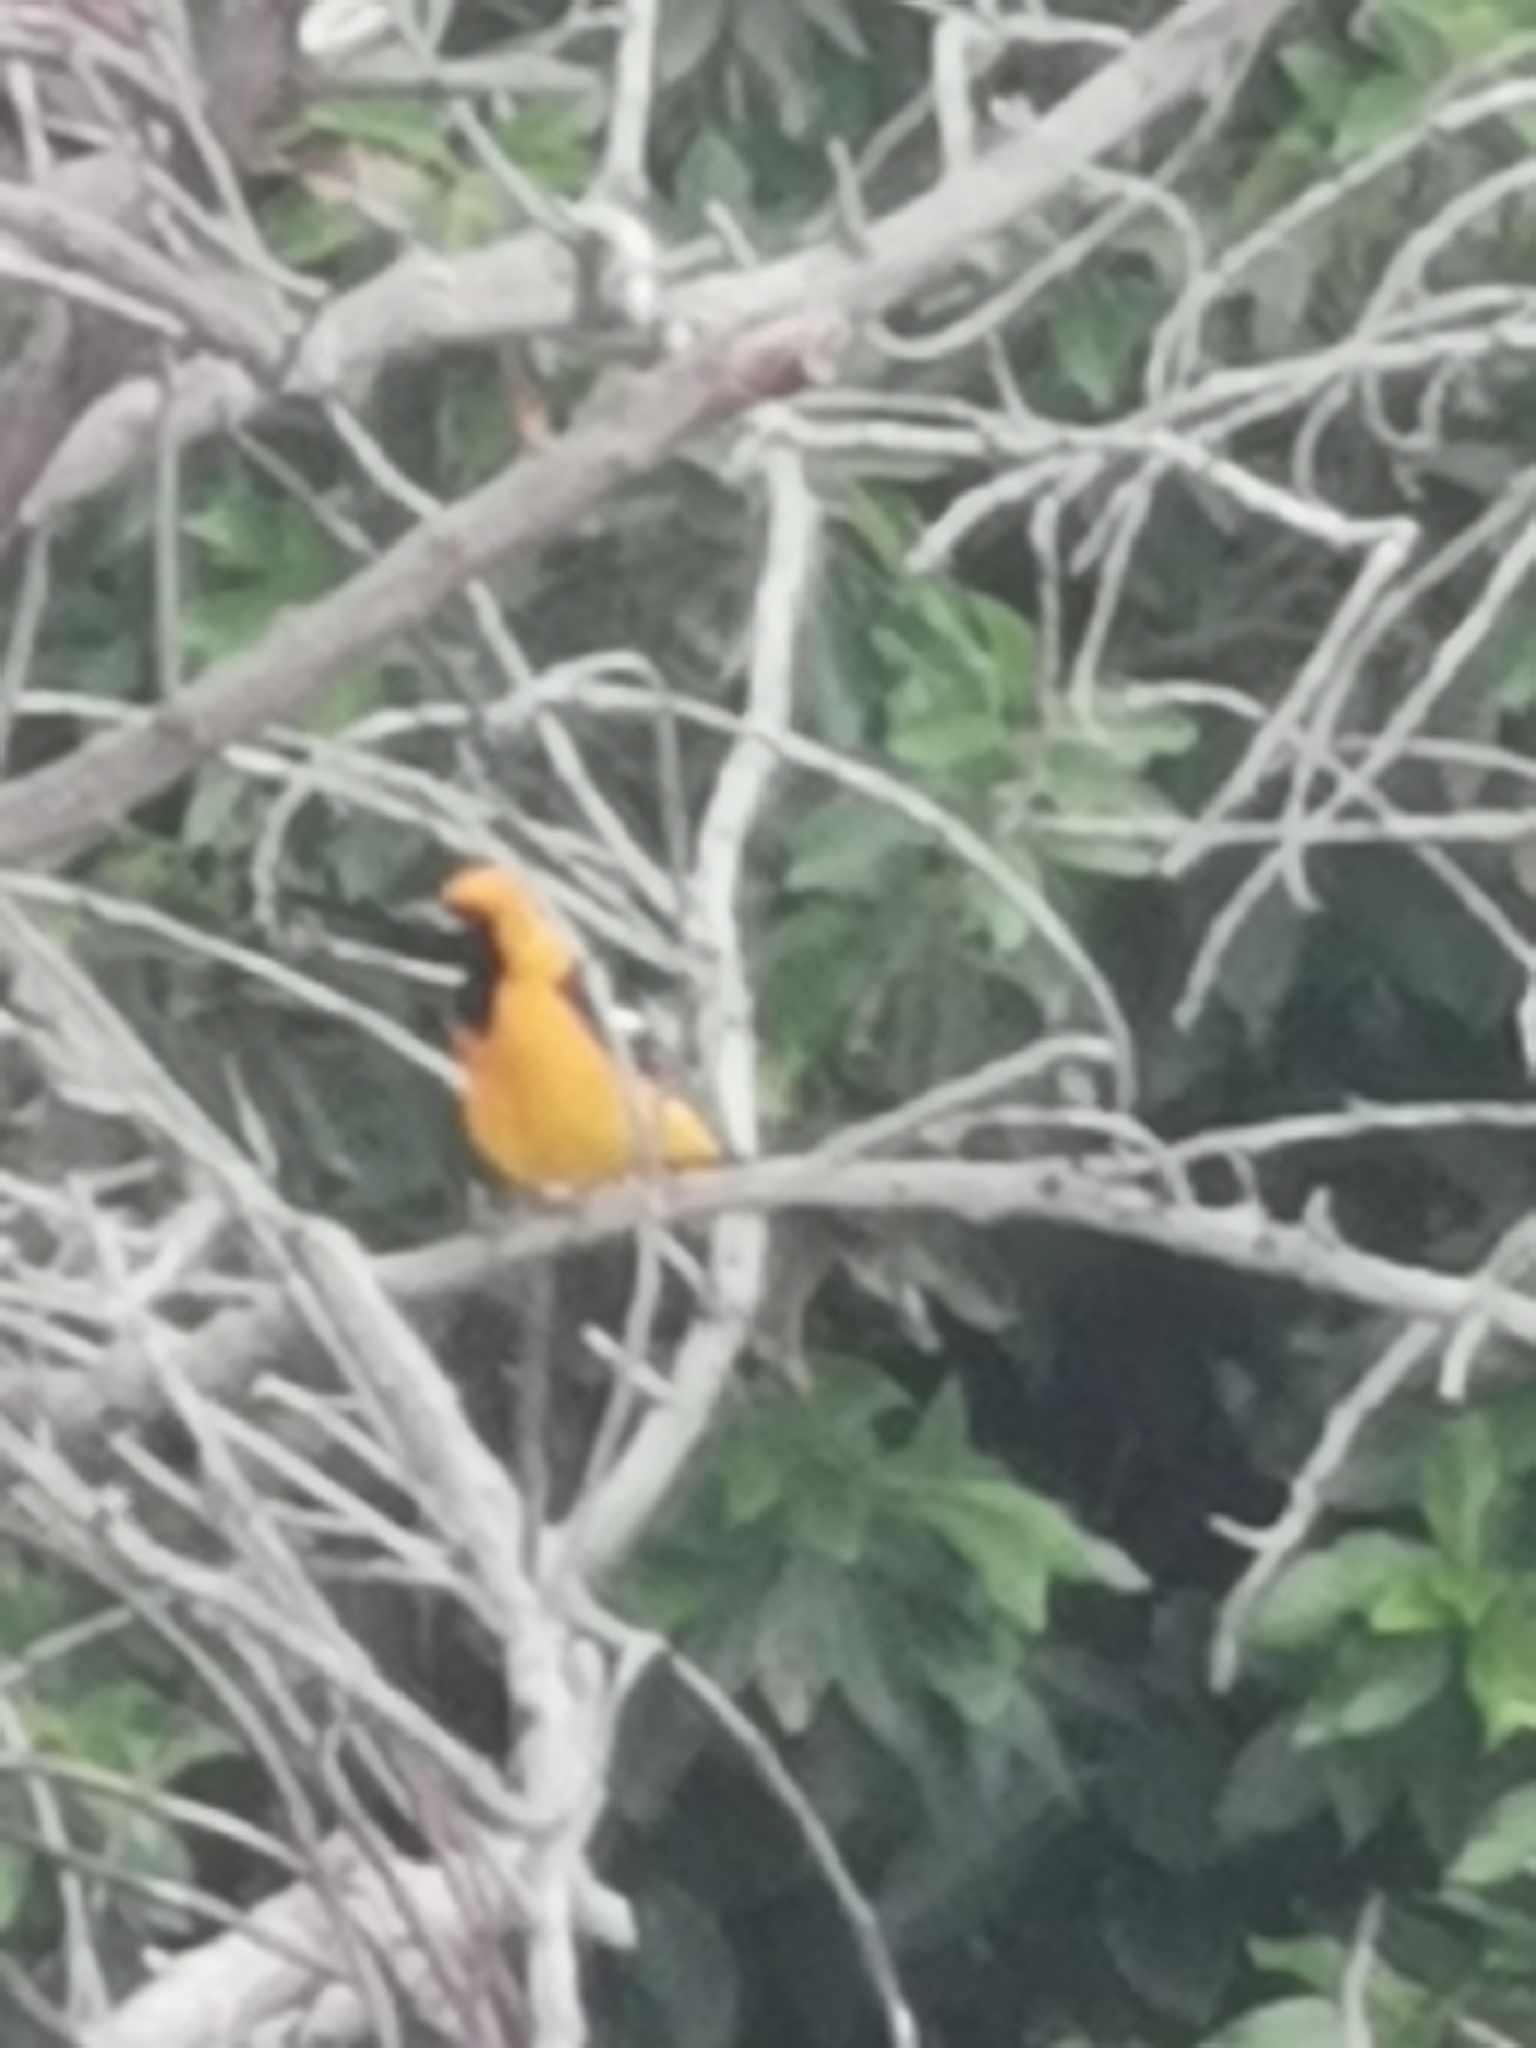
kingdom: Animalia
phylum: Chordata
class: Aves
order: Passeriformes
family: Icteridae
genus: Icterus
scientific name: Icterus cucullatus
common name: Hooded oriole
